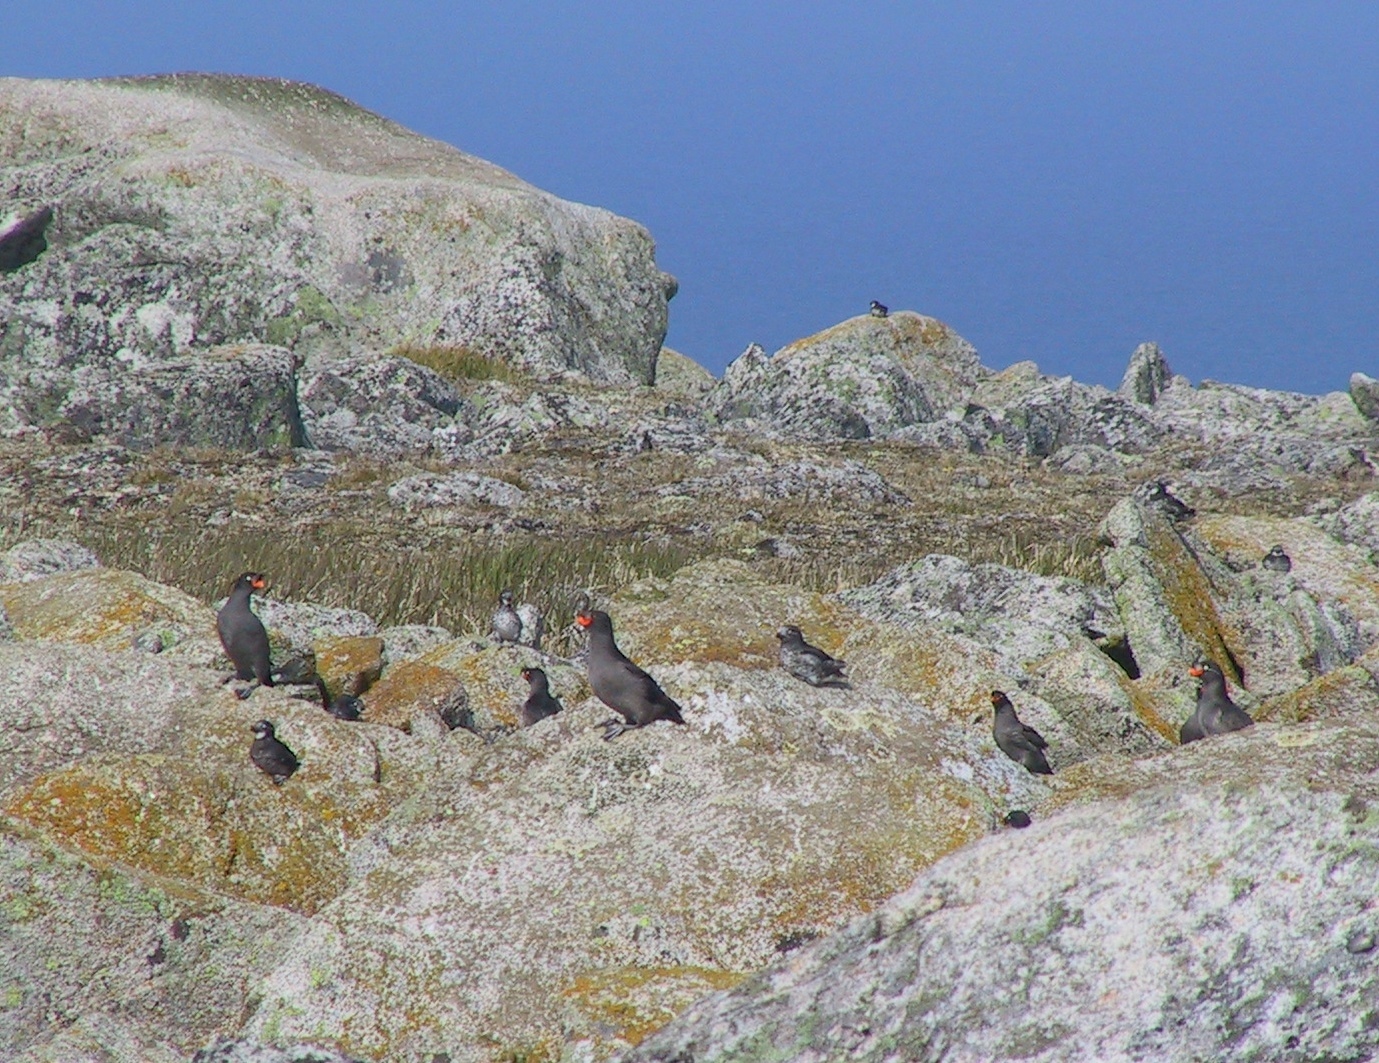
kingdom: Animalia
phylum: Chordata
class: Aves
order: Charadriiformes
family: Alcidae
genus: Aethia
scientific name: Aethia cristatella
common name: Crested auklet
